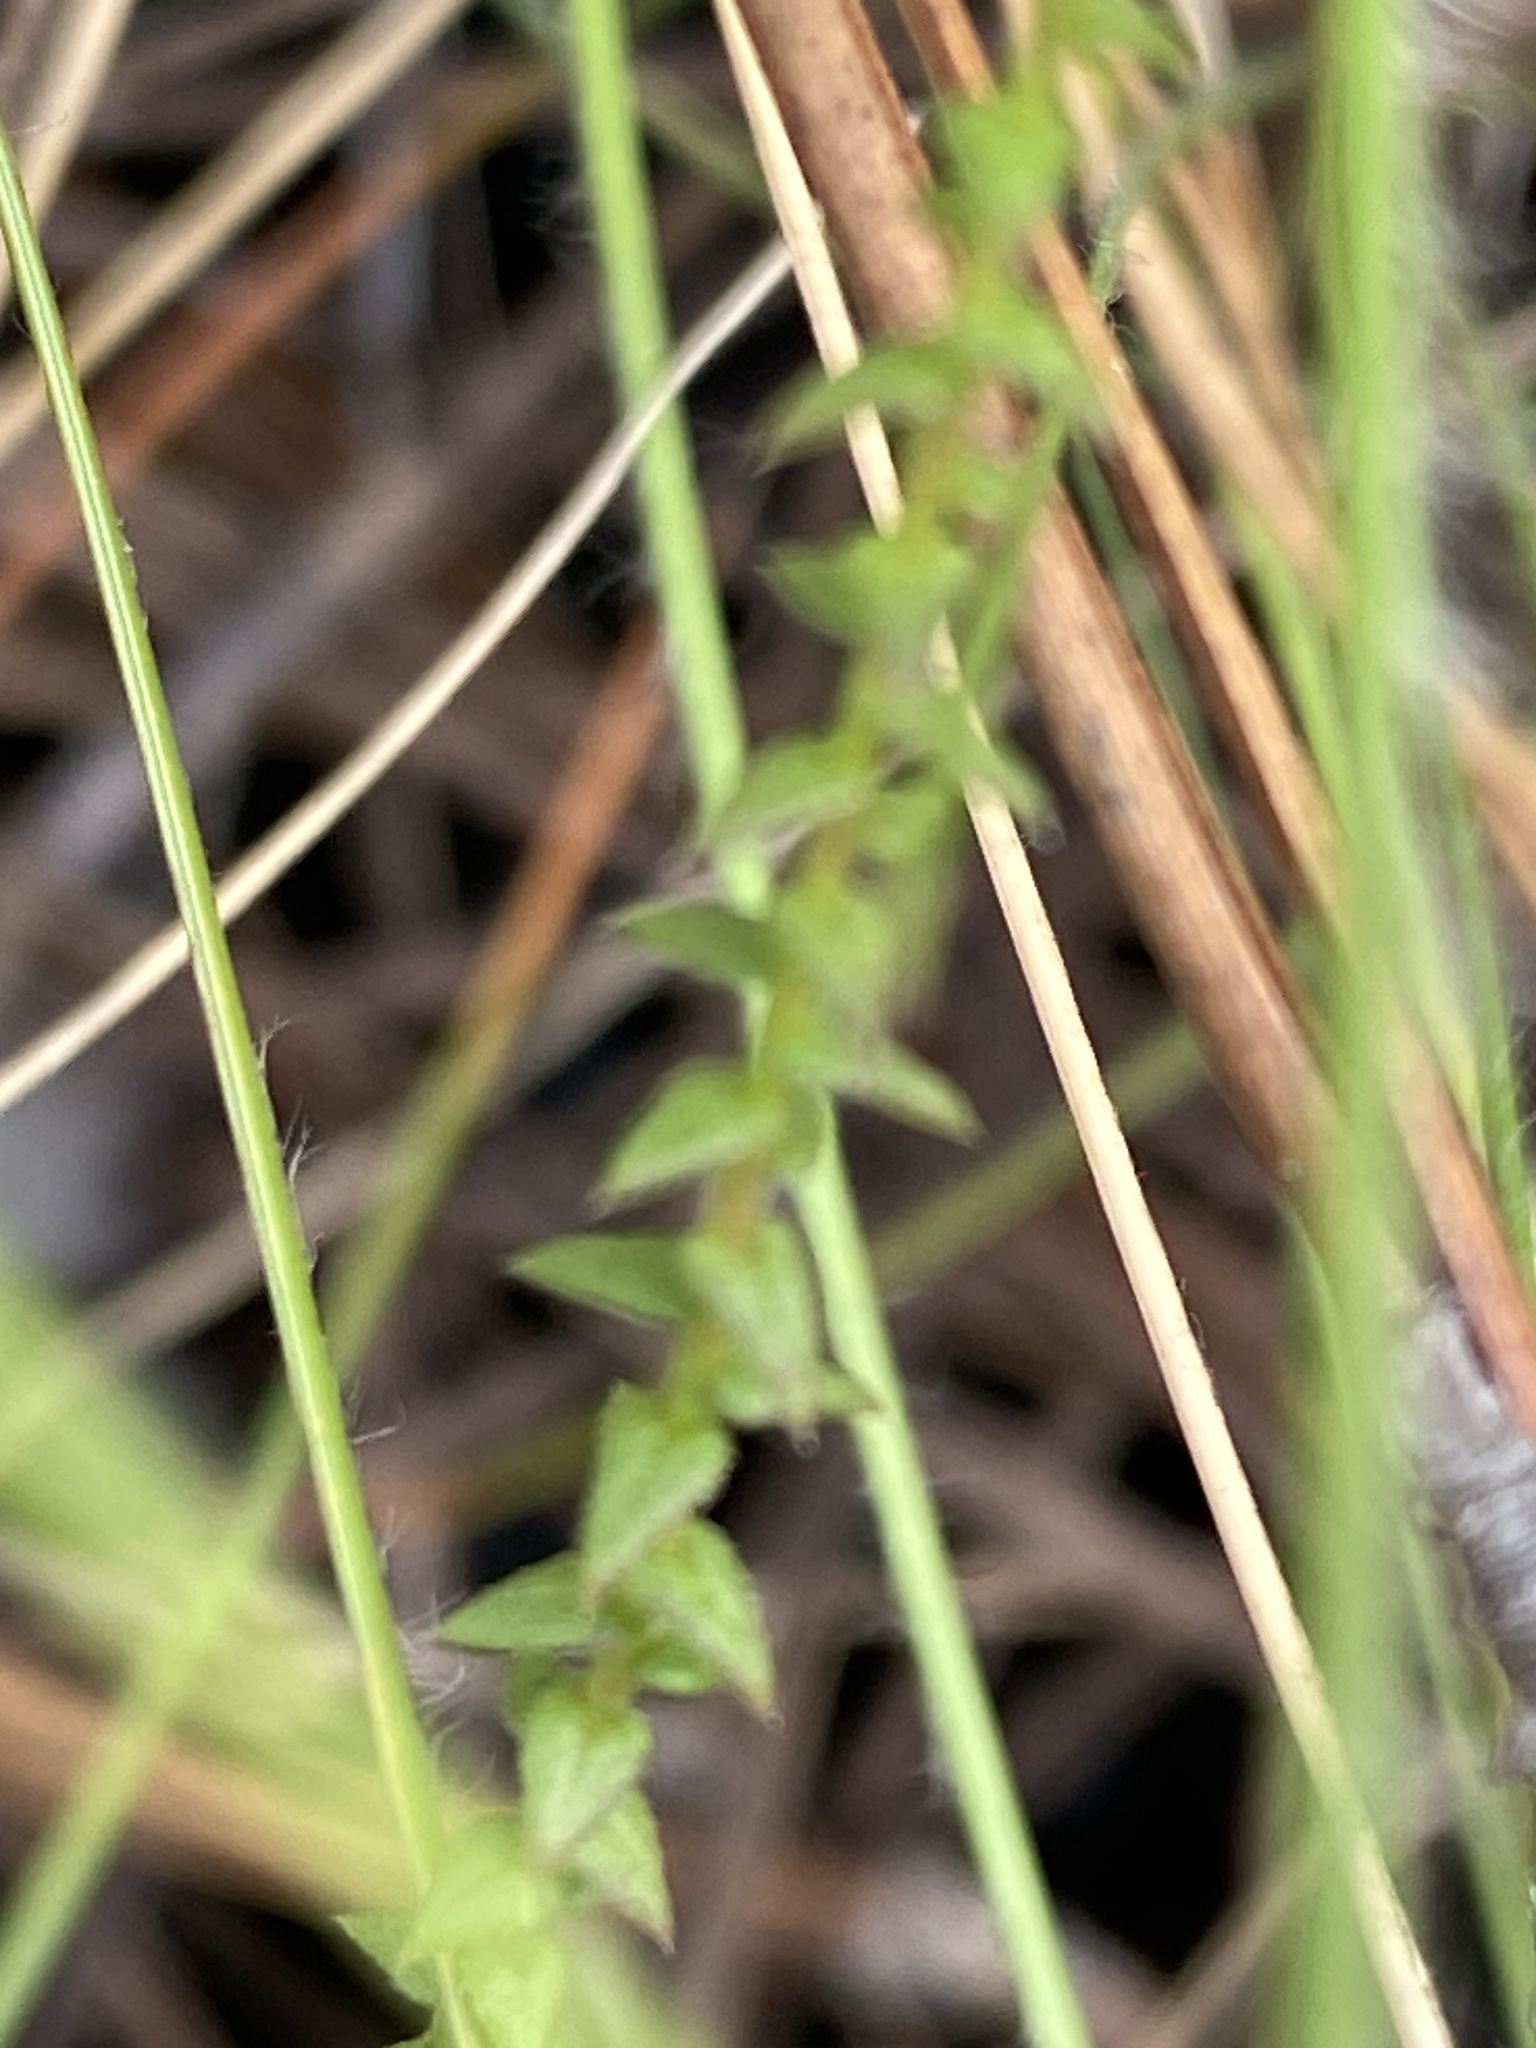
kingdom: Plantae
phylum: Tracheophyta
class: Magnoliopsida
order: Asterales
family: Asteraceae
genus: Symphyotrichum
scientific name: Symphyotrichum walteri
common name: Walter's aster
